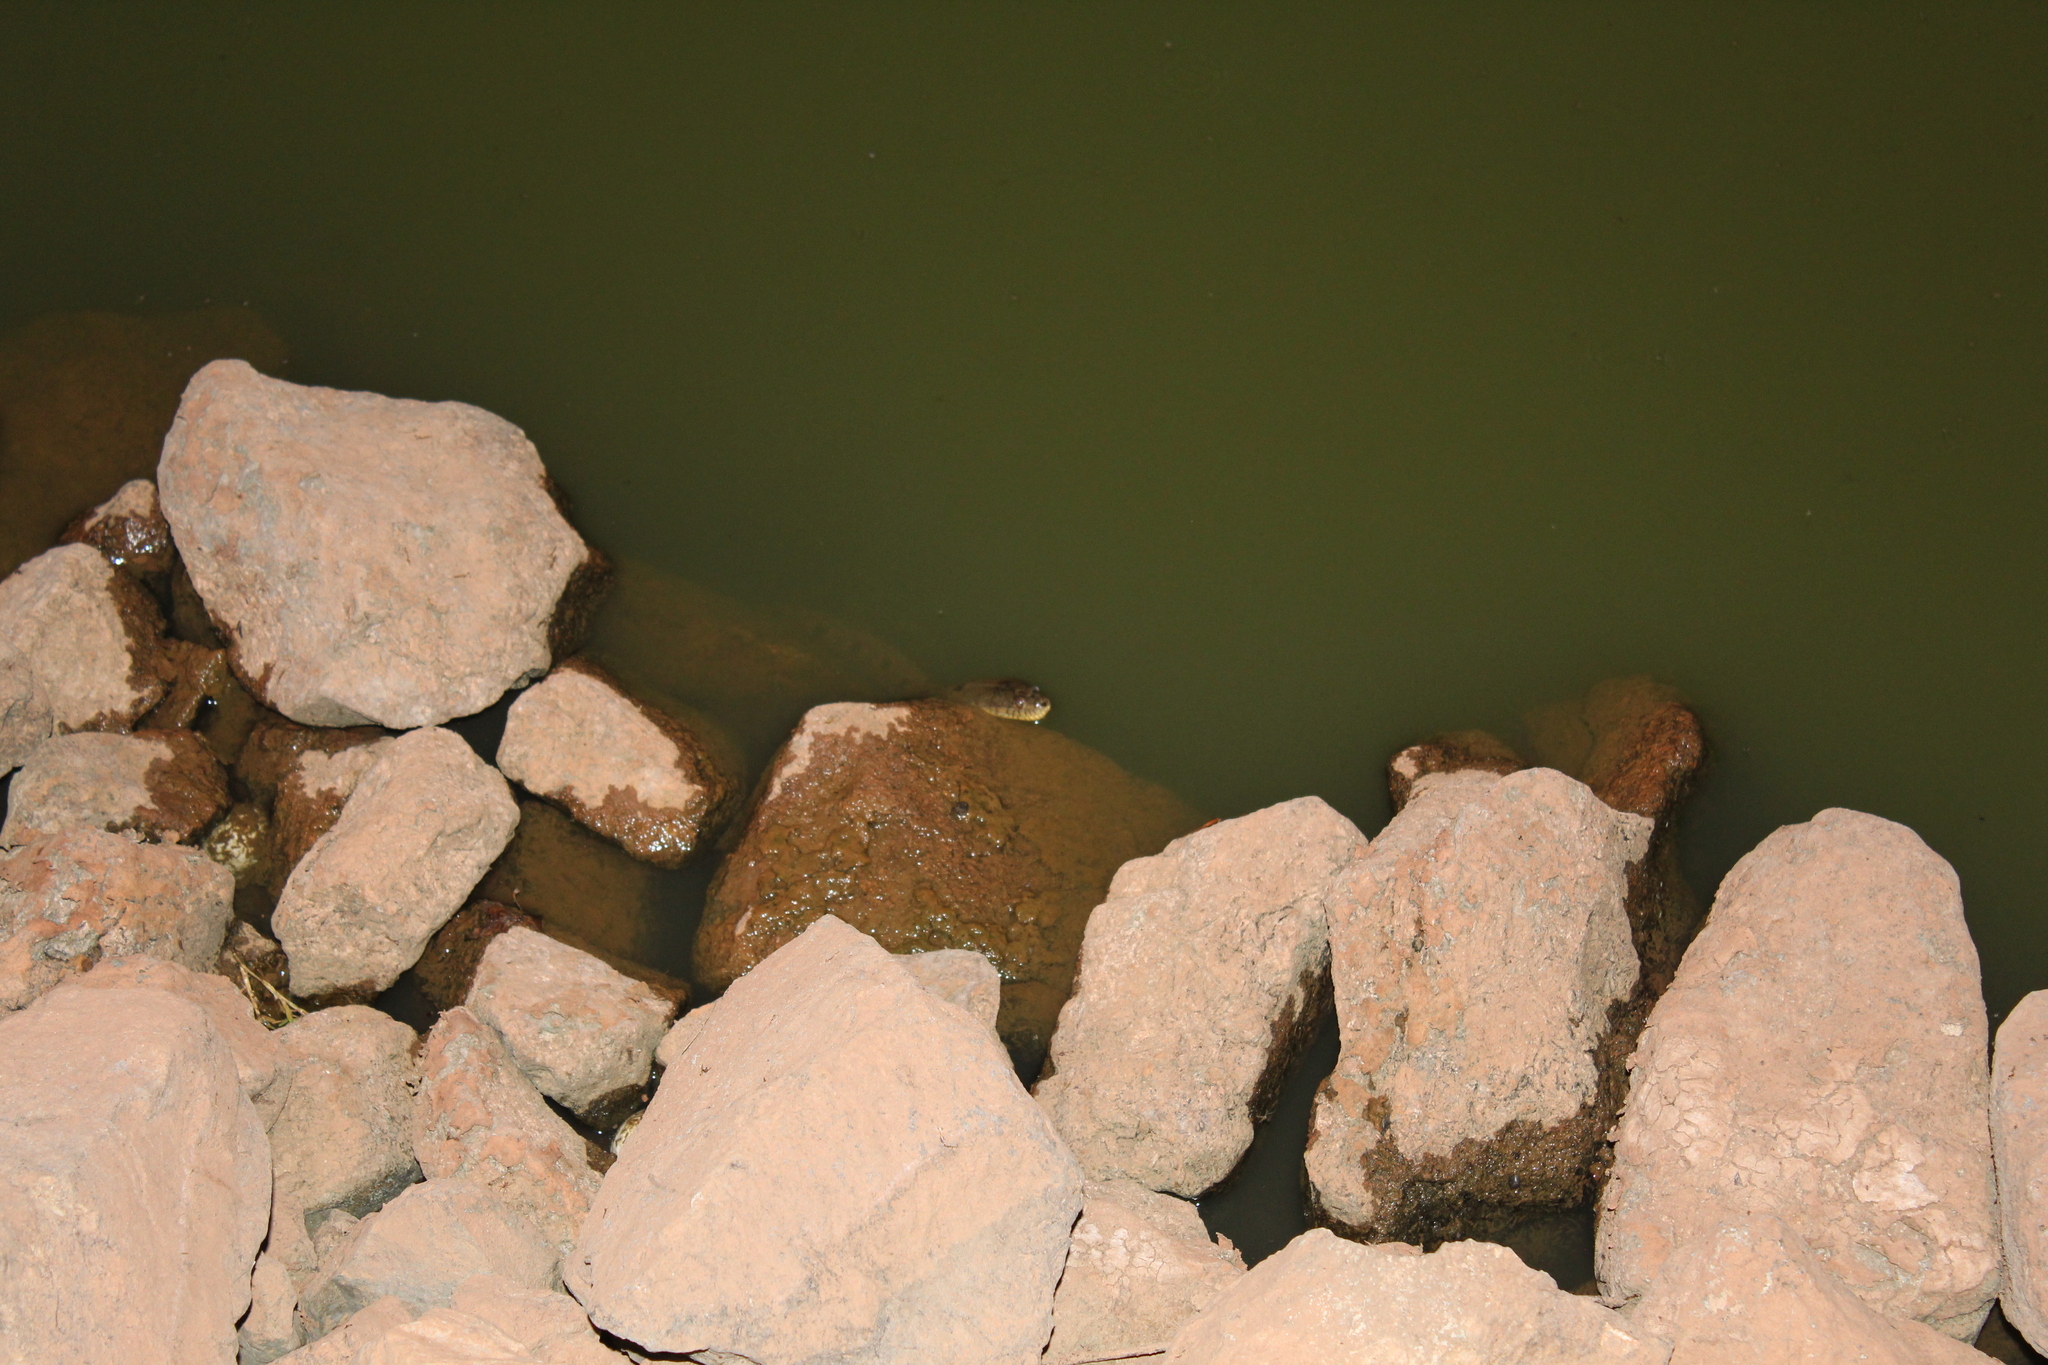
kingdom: Animalia
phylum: Chordata
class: Squamata
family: Colubridae
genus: Nerodia
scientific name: Nerodia rhombifer
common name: Diamondback water snake
